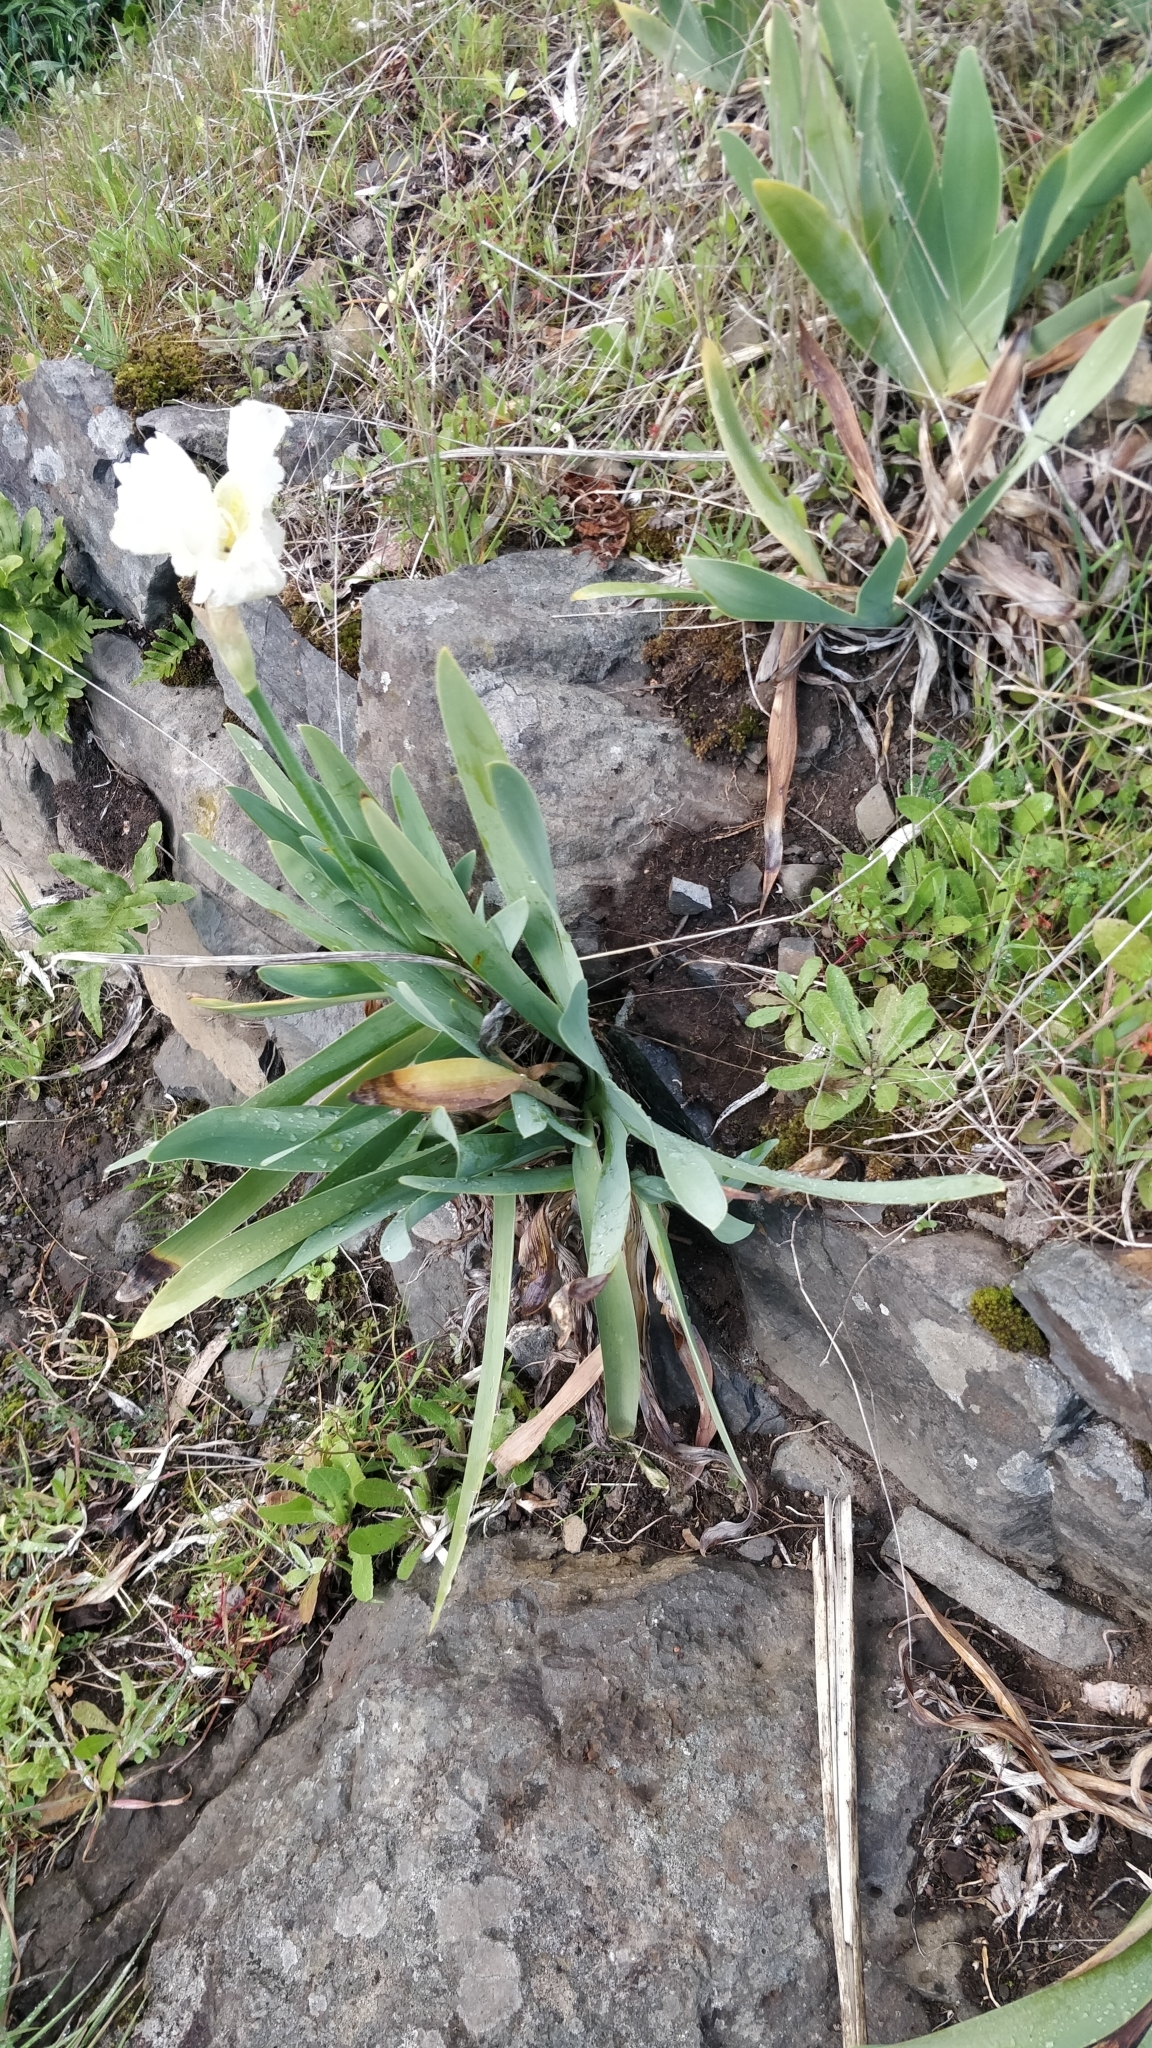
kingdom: Plantae
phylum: Tracheophyta
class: Liliopsida
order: Asparagales
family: Iridaceae
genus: Iris
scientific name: Iris florentina
